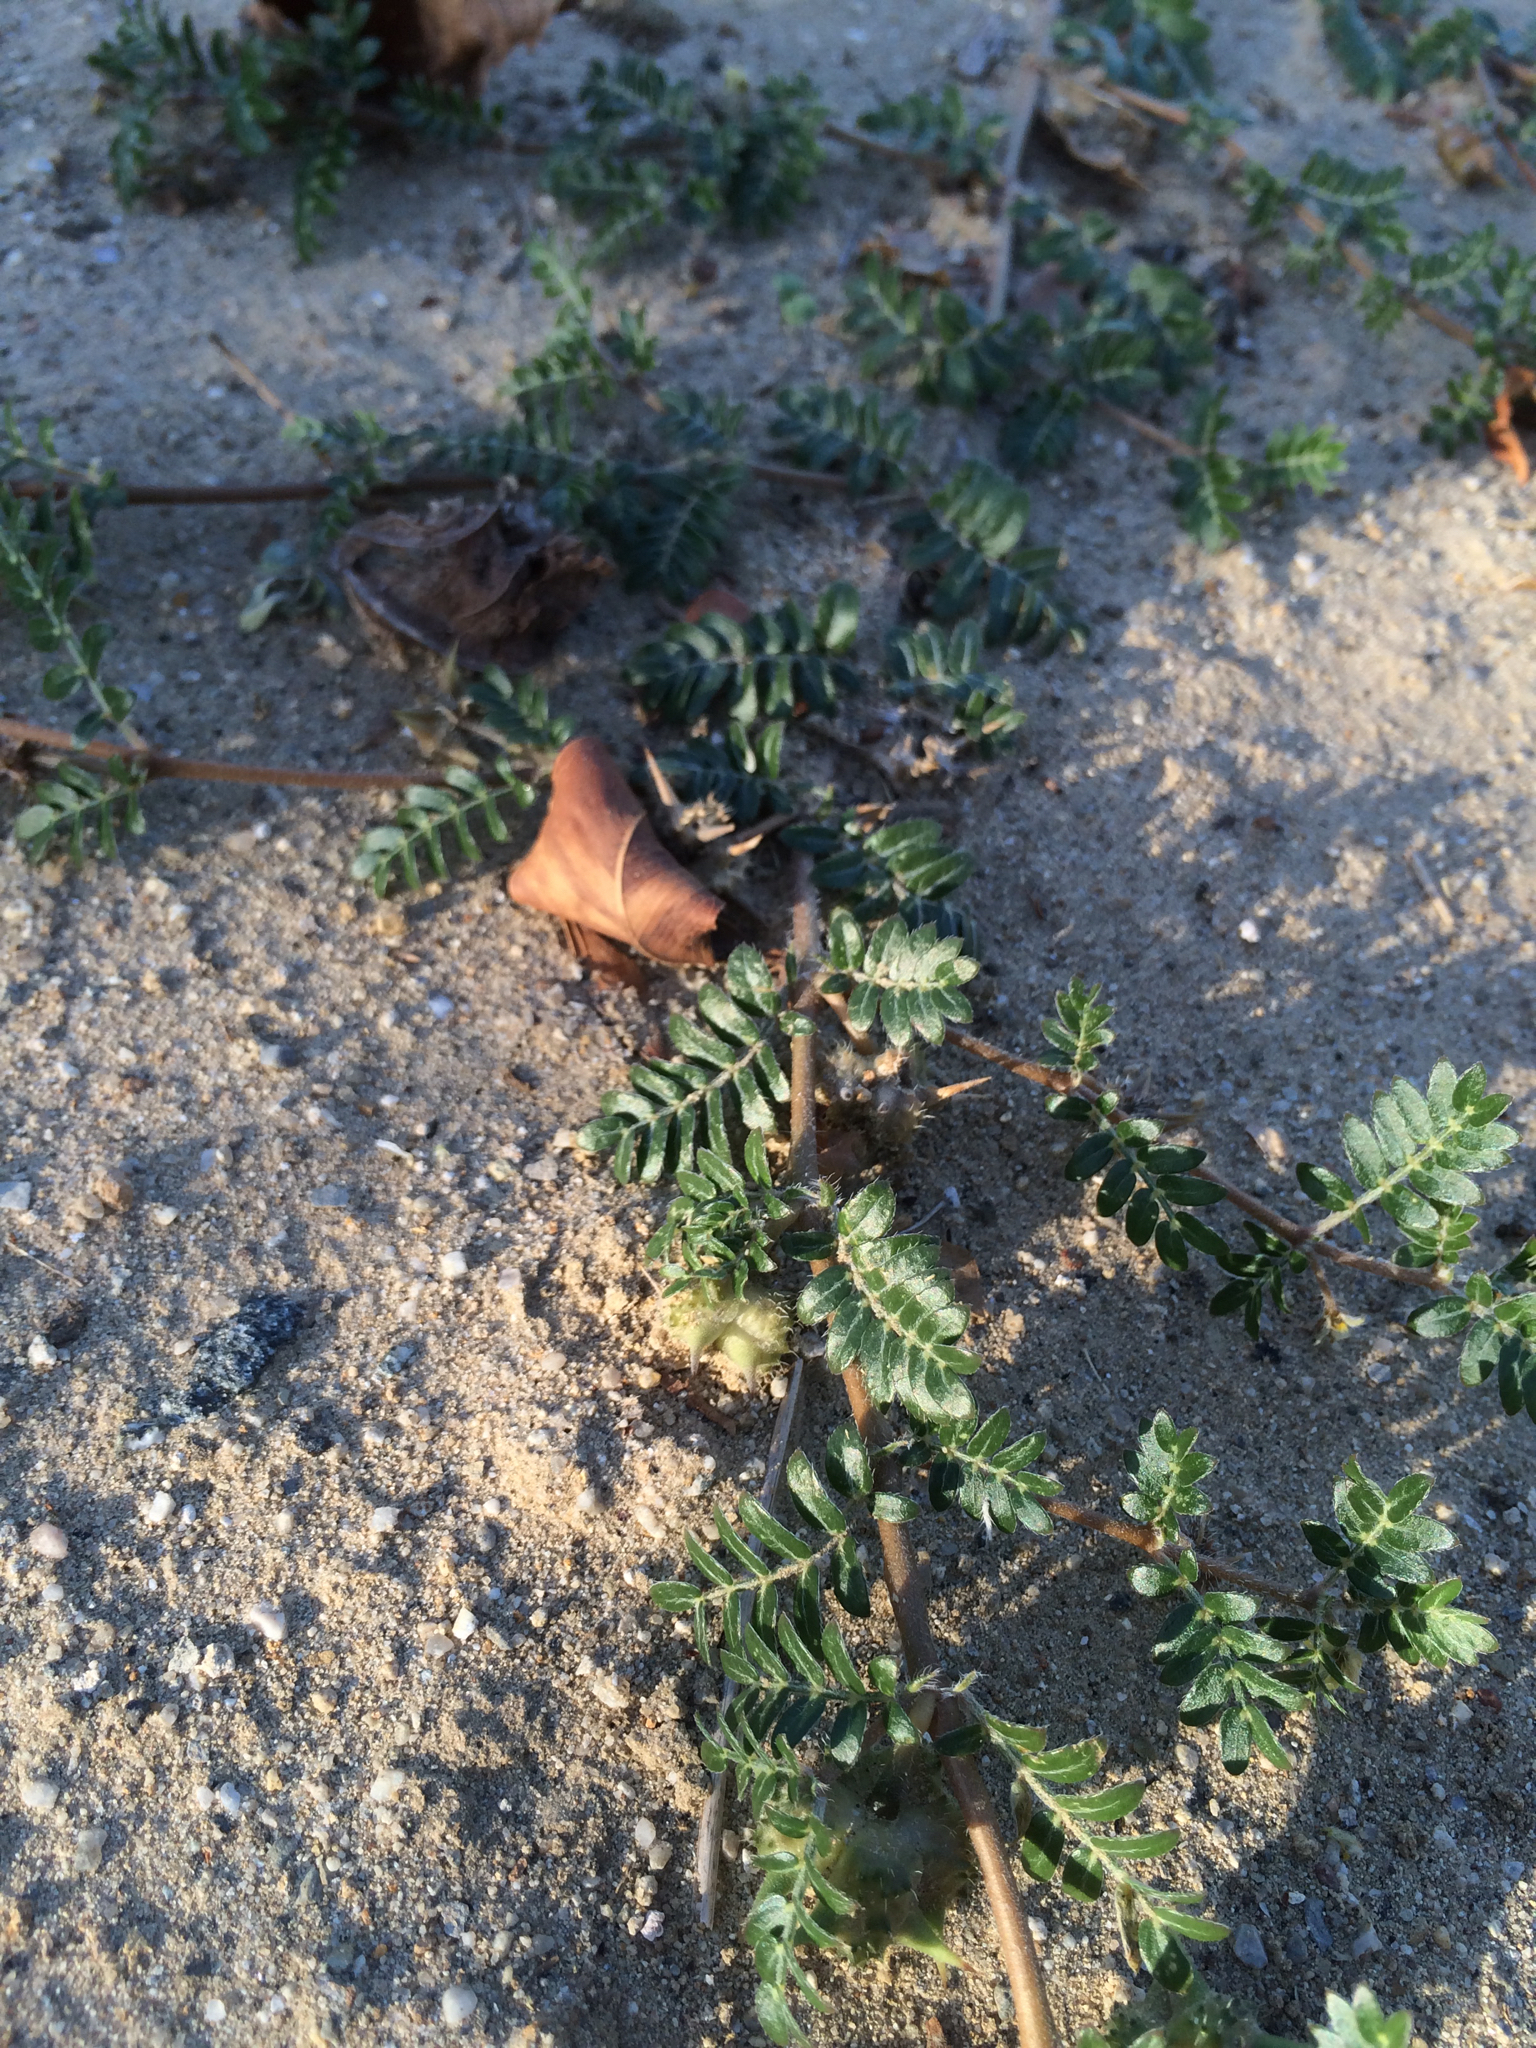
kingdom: Plantae
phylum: Tracheophyta
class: Magnoliopsida
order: Zygophyllales
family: Zygophyllaceae
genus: Tribulus
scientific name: Tribulus terrestris
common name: Puncturevine
